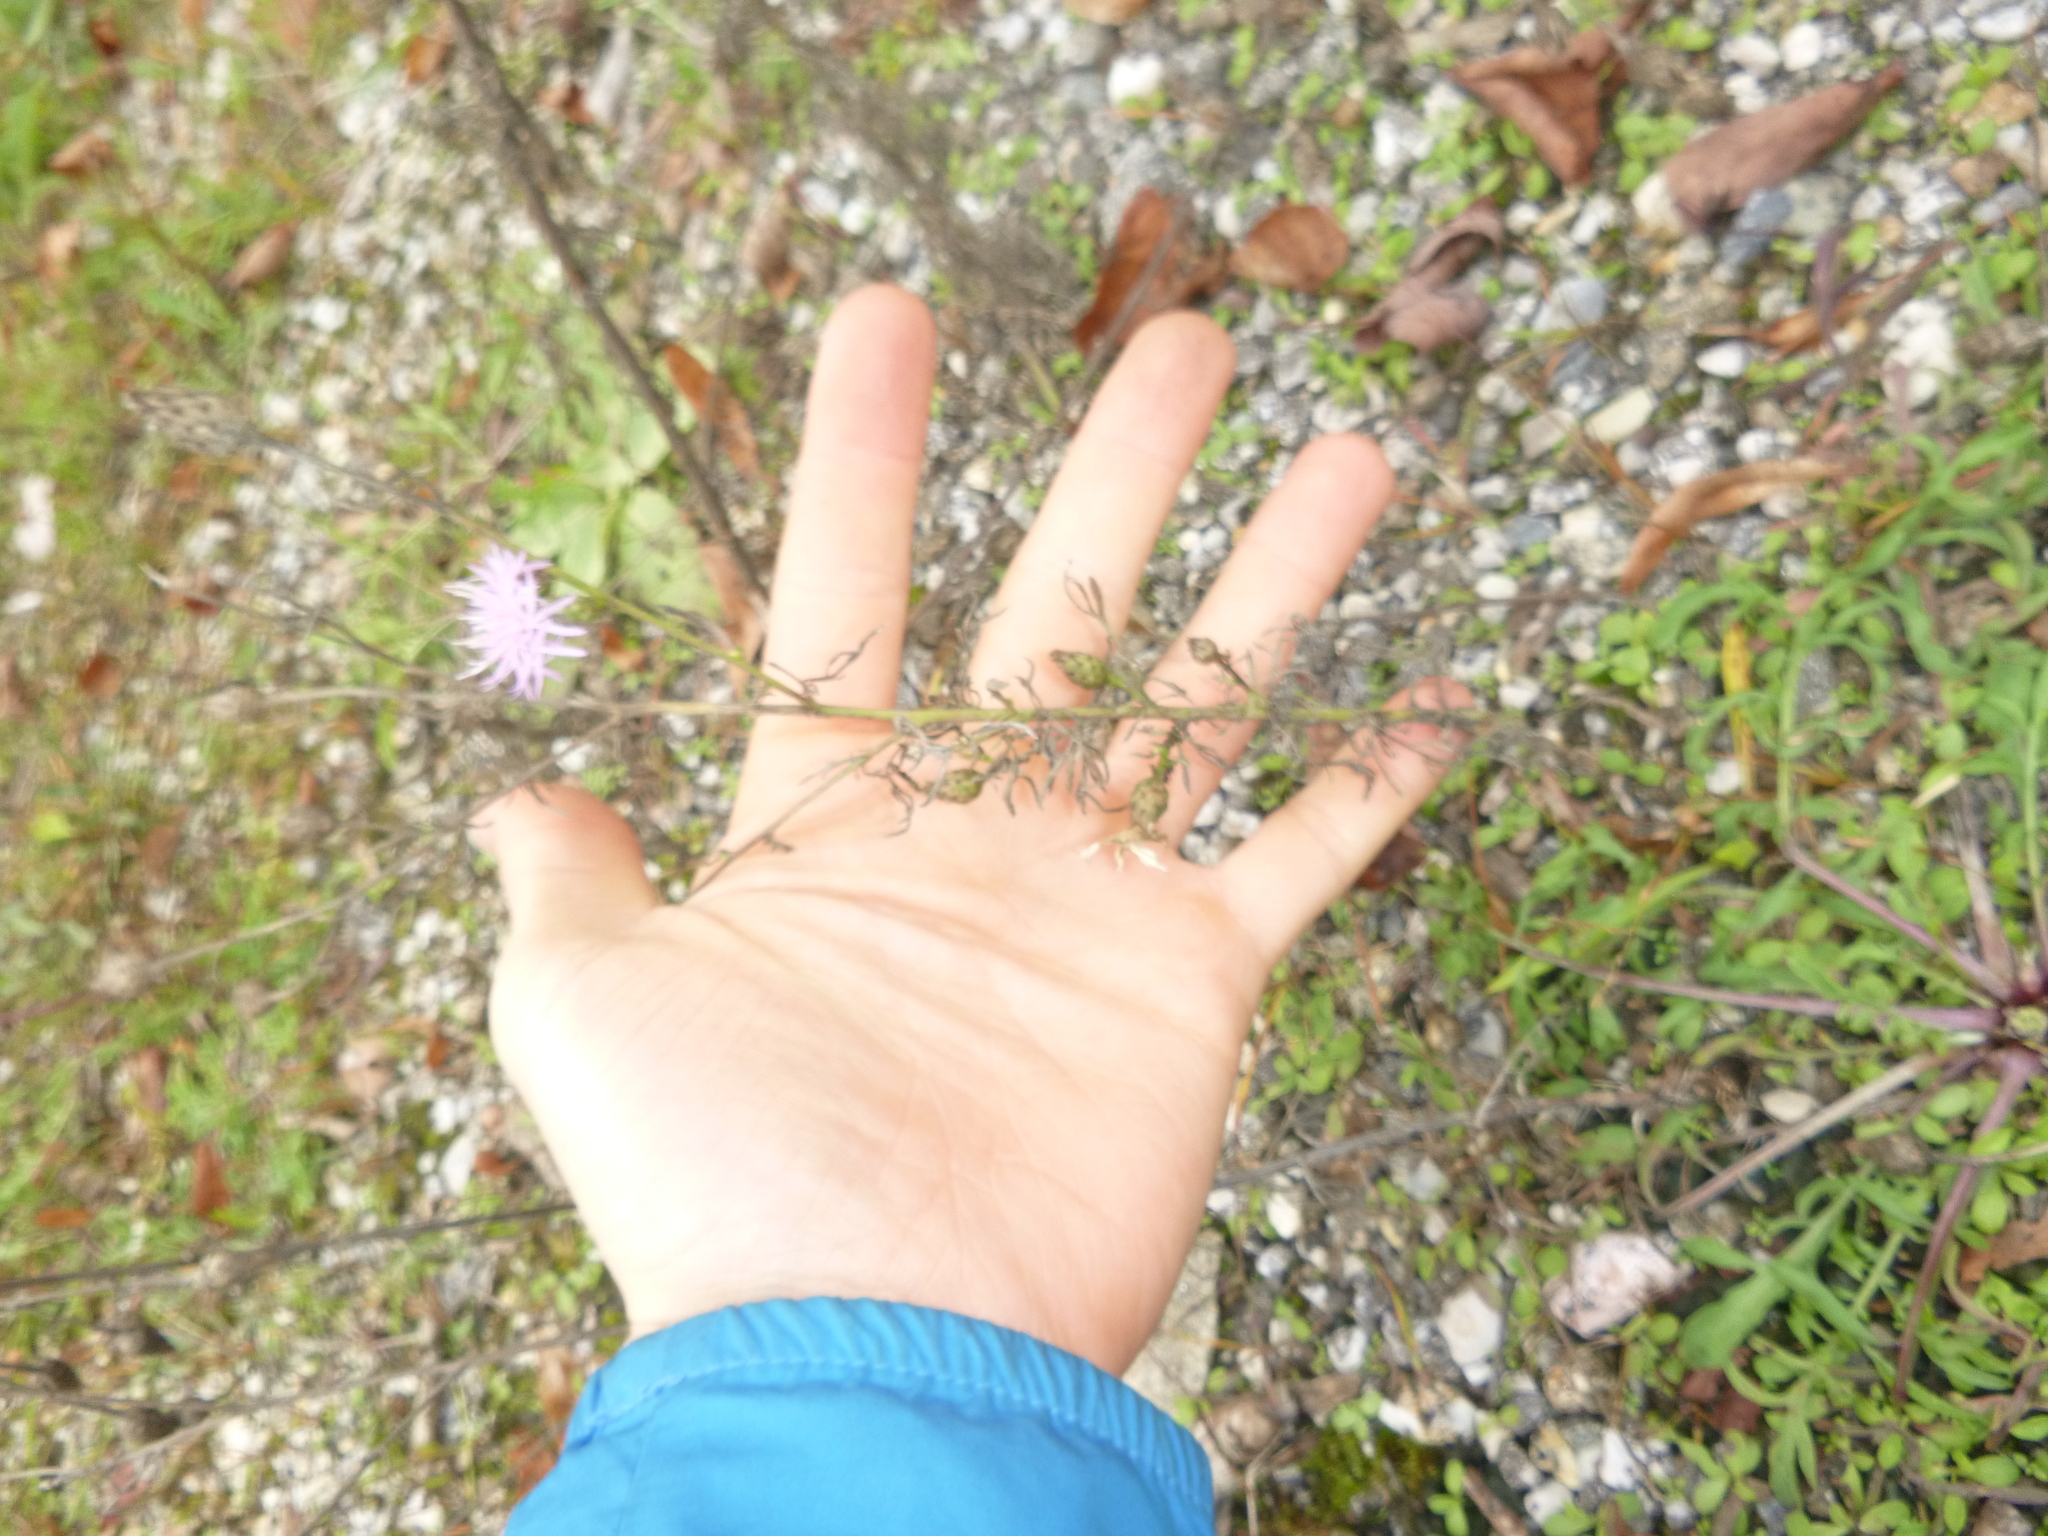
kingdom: Plantae
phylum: Tracheophyta
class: Magnoliopsida
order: Asterales
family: Asteraceae
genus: Centaurea
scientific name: Centaurea stoebe
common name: Spotted knapweed
